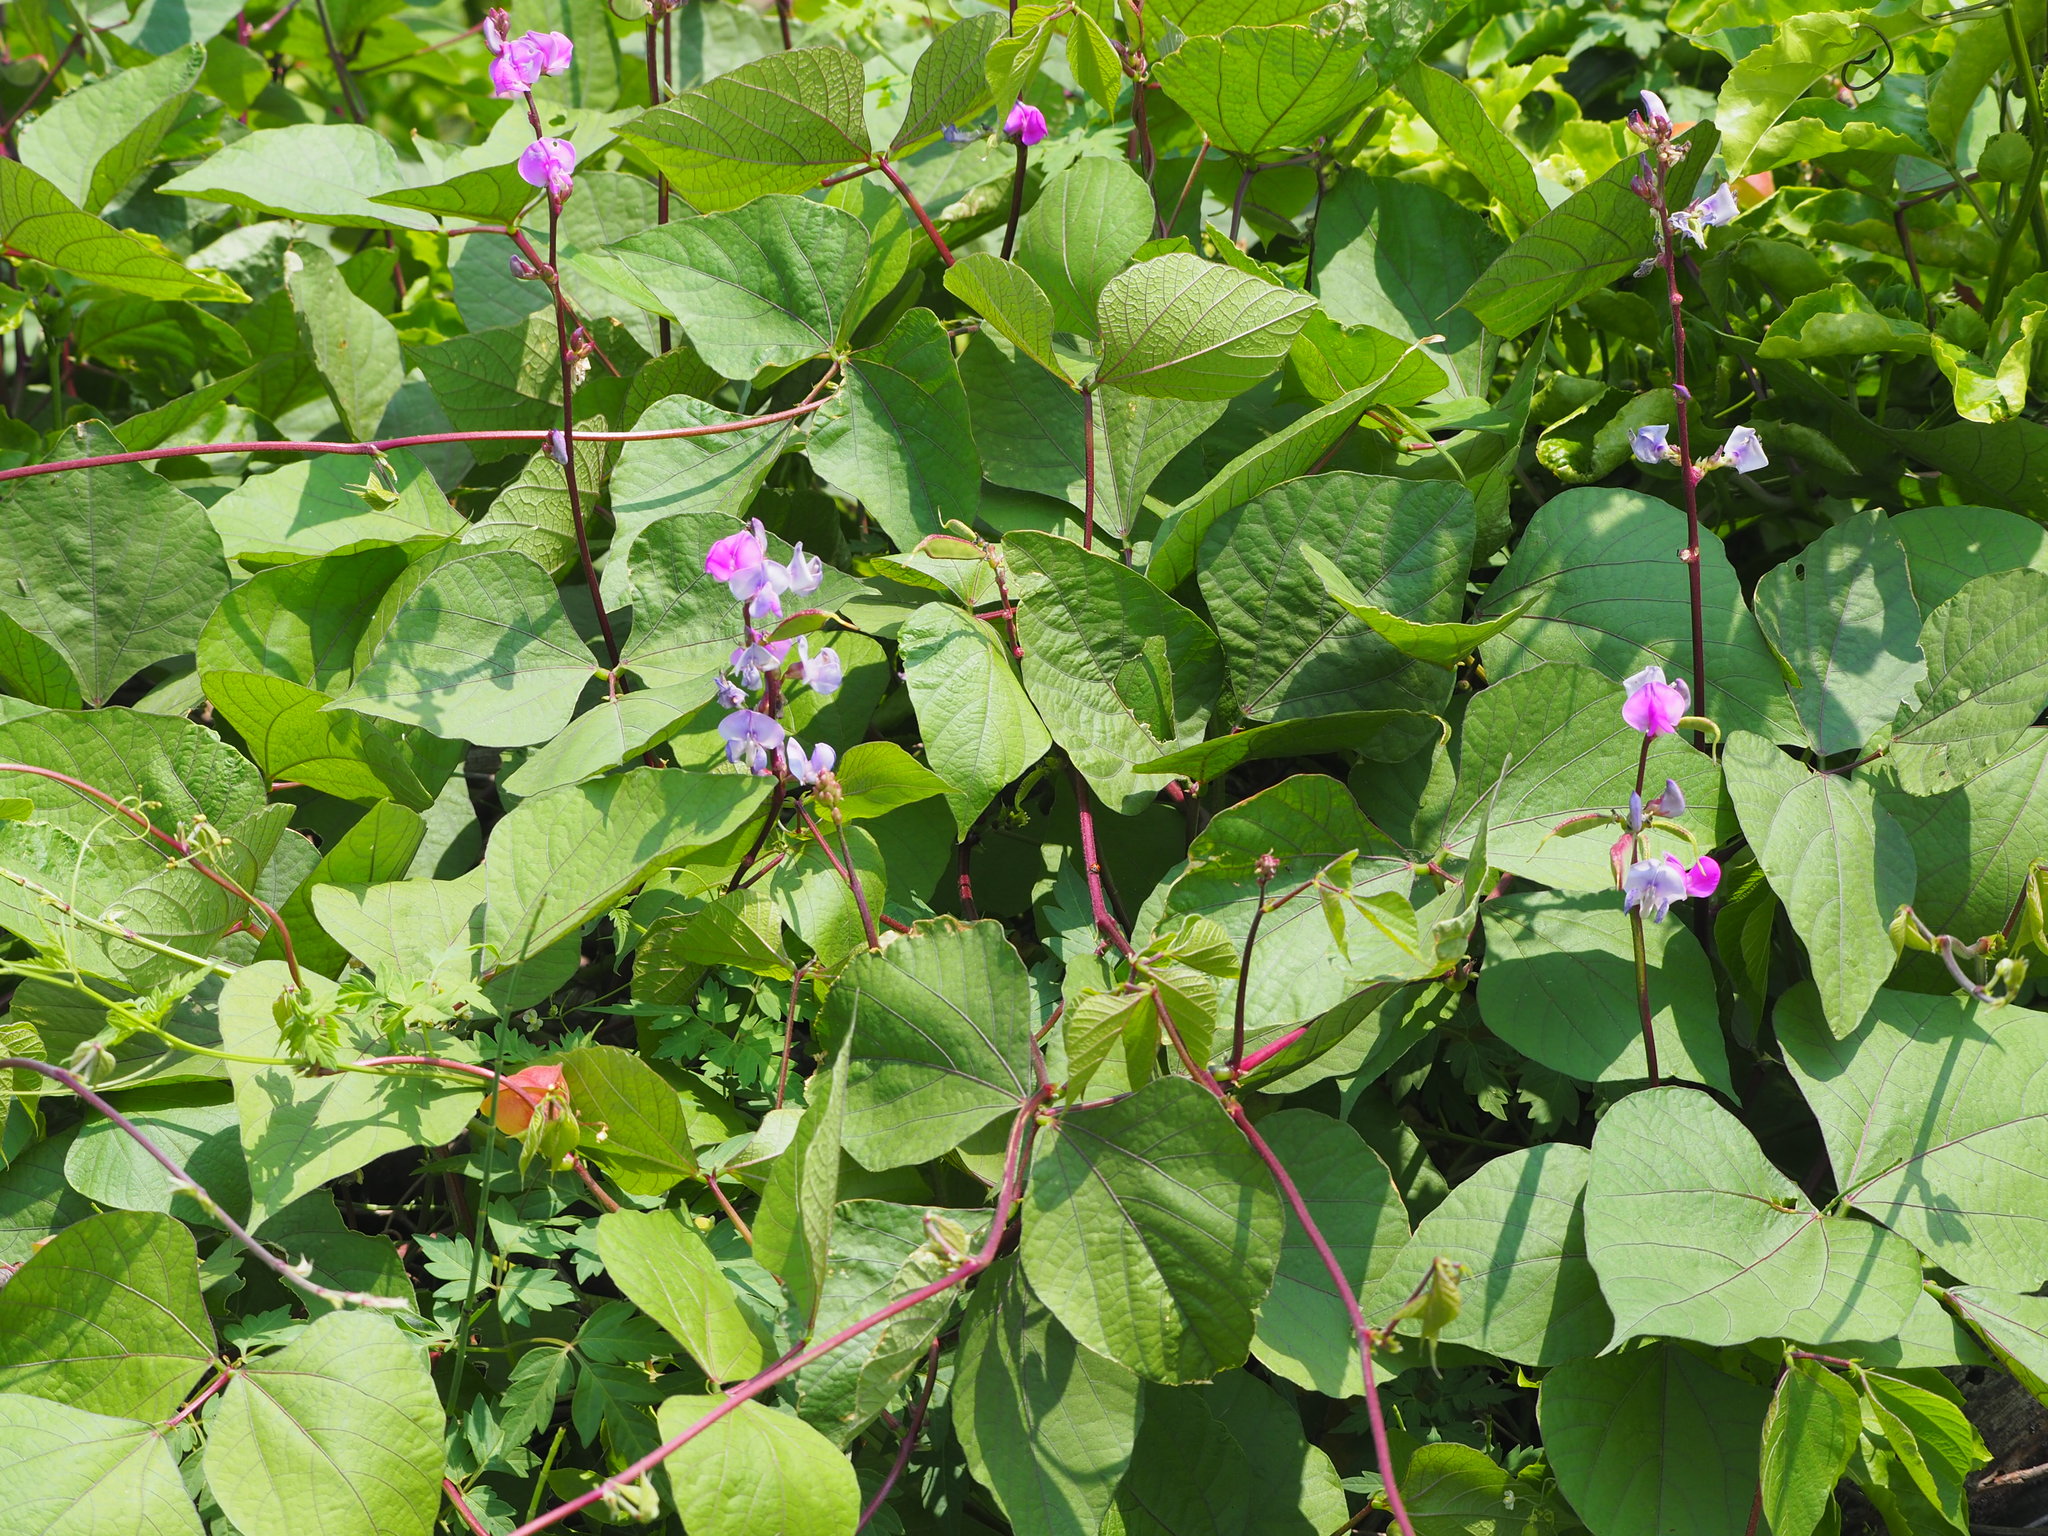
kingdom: Plantae
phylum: Tracheophyta
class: Magnoliopsida
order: Fabales
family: Fabaceae
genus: Lablab
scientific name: Lablab purpureus
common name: Lablab-bean
